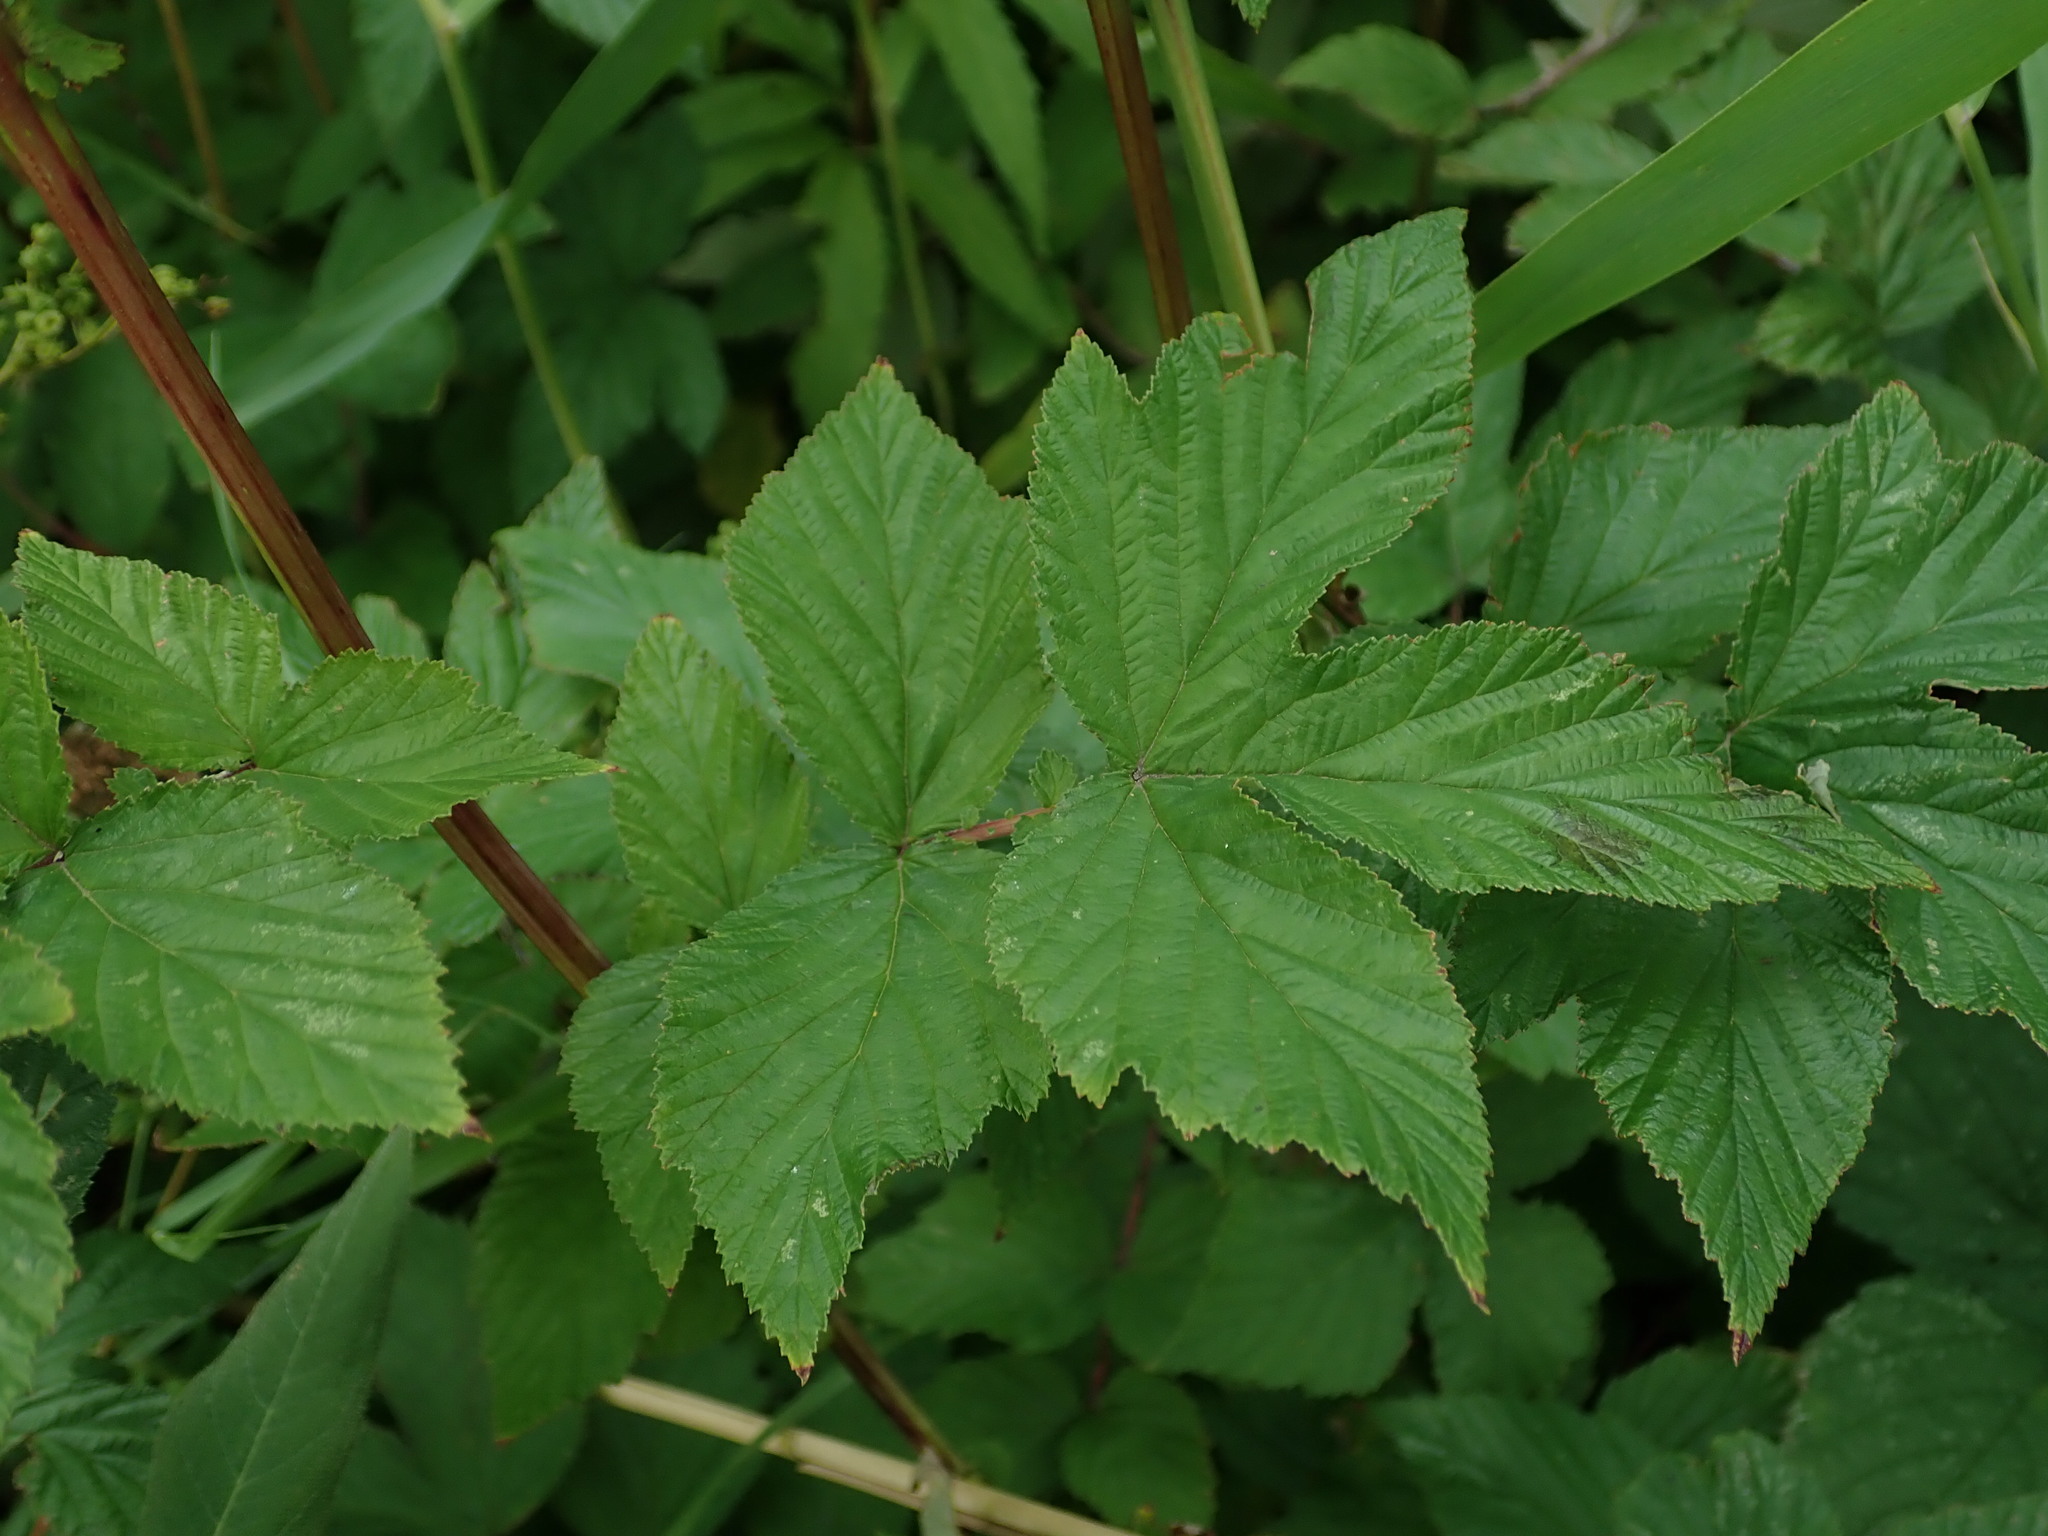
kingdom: Plantae
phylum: Tracheophyta
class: Magnoliopsida
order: Rosales
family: Rosaceae
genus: Filipendula
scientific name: Filipendula ulmaria
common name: Meadowsweet
